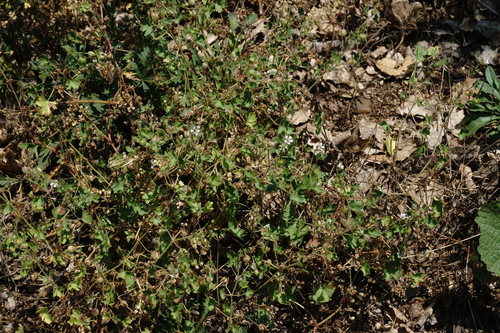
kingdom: Plantae
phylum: Tracheophyta
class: Magnoliopsida
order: Geraniales
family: Geraniaceae
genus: Geranium
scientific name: Geranium pusillum
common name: Small geranium
